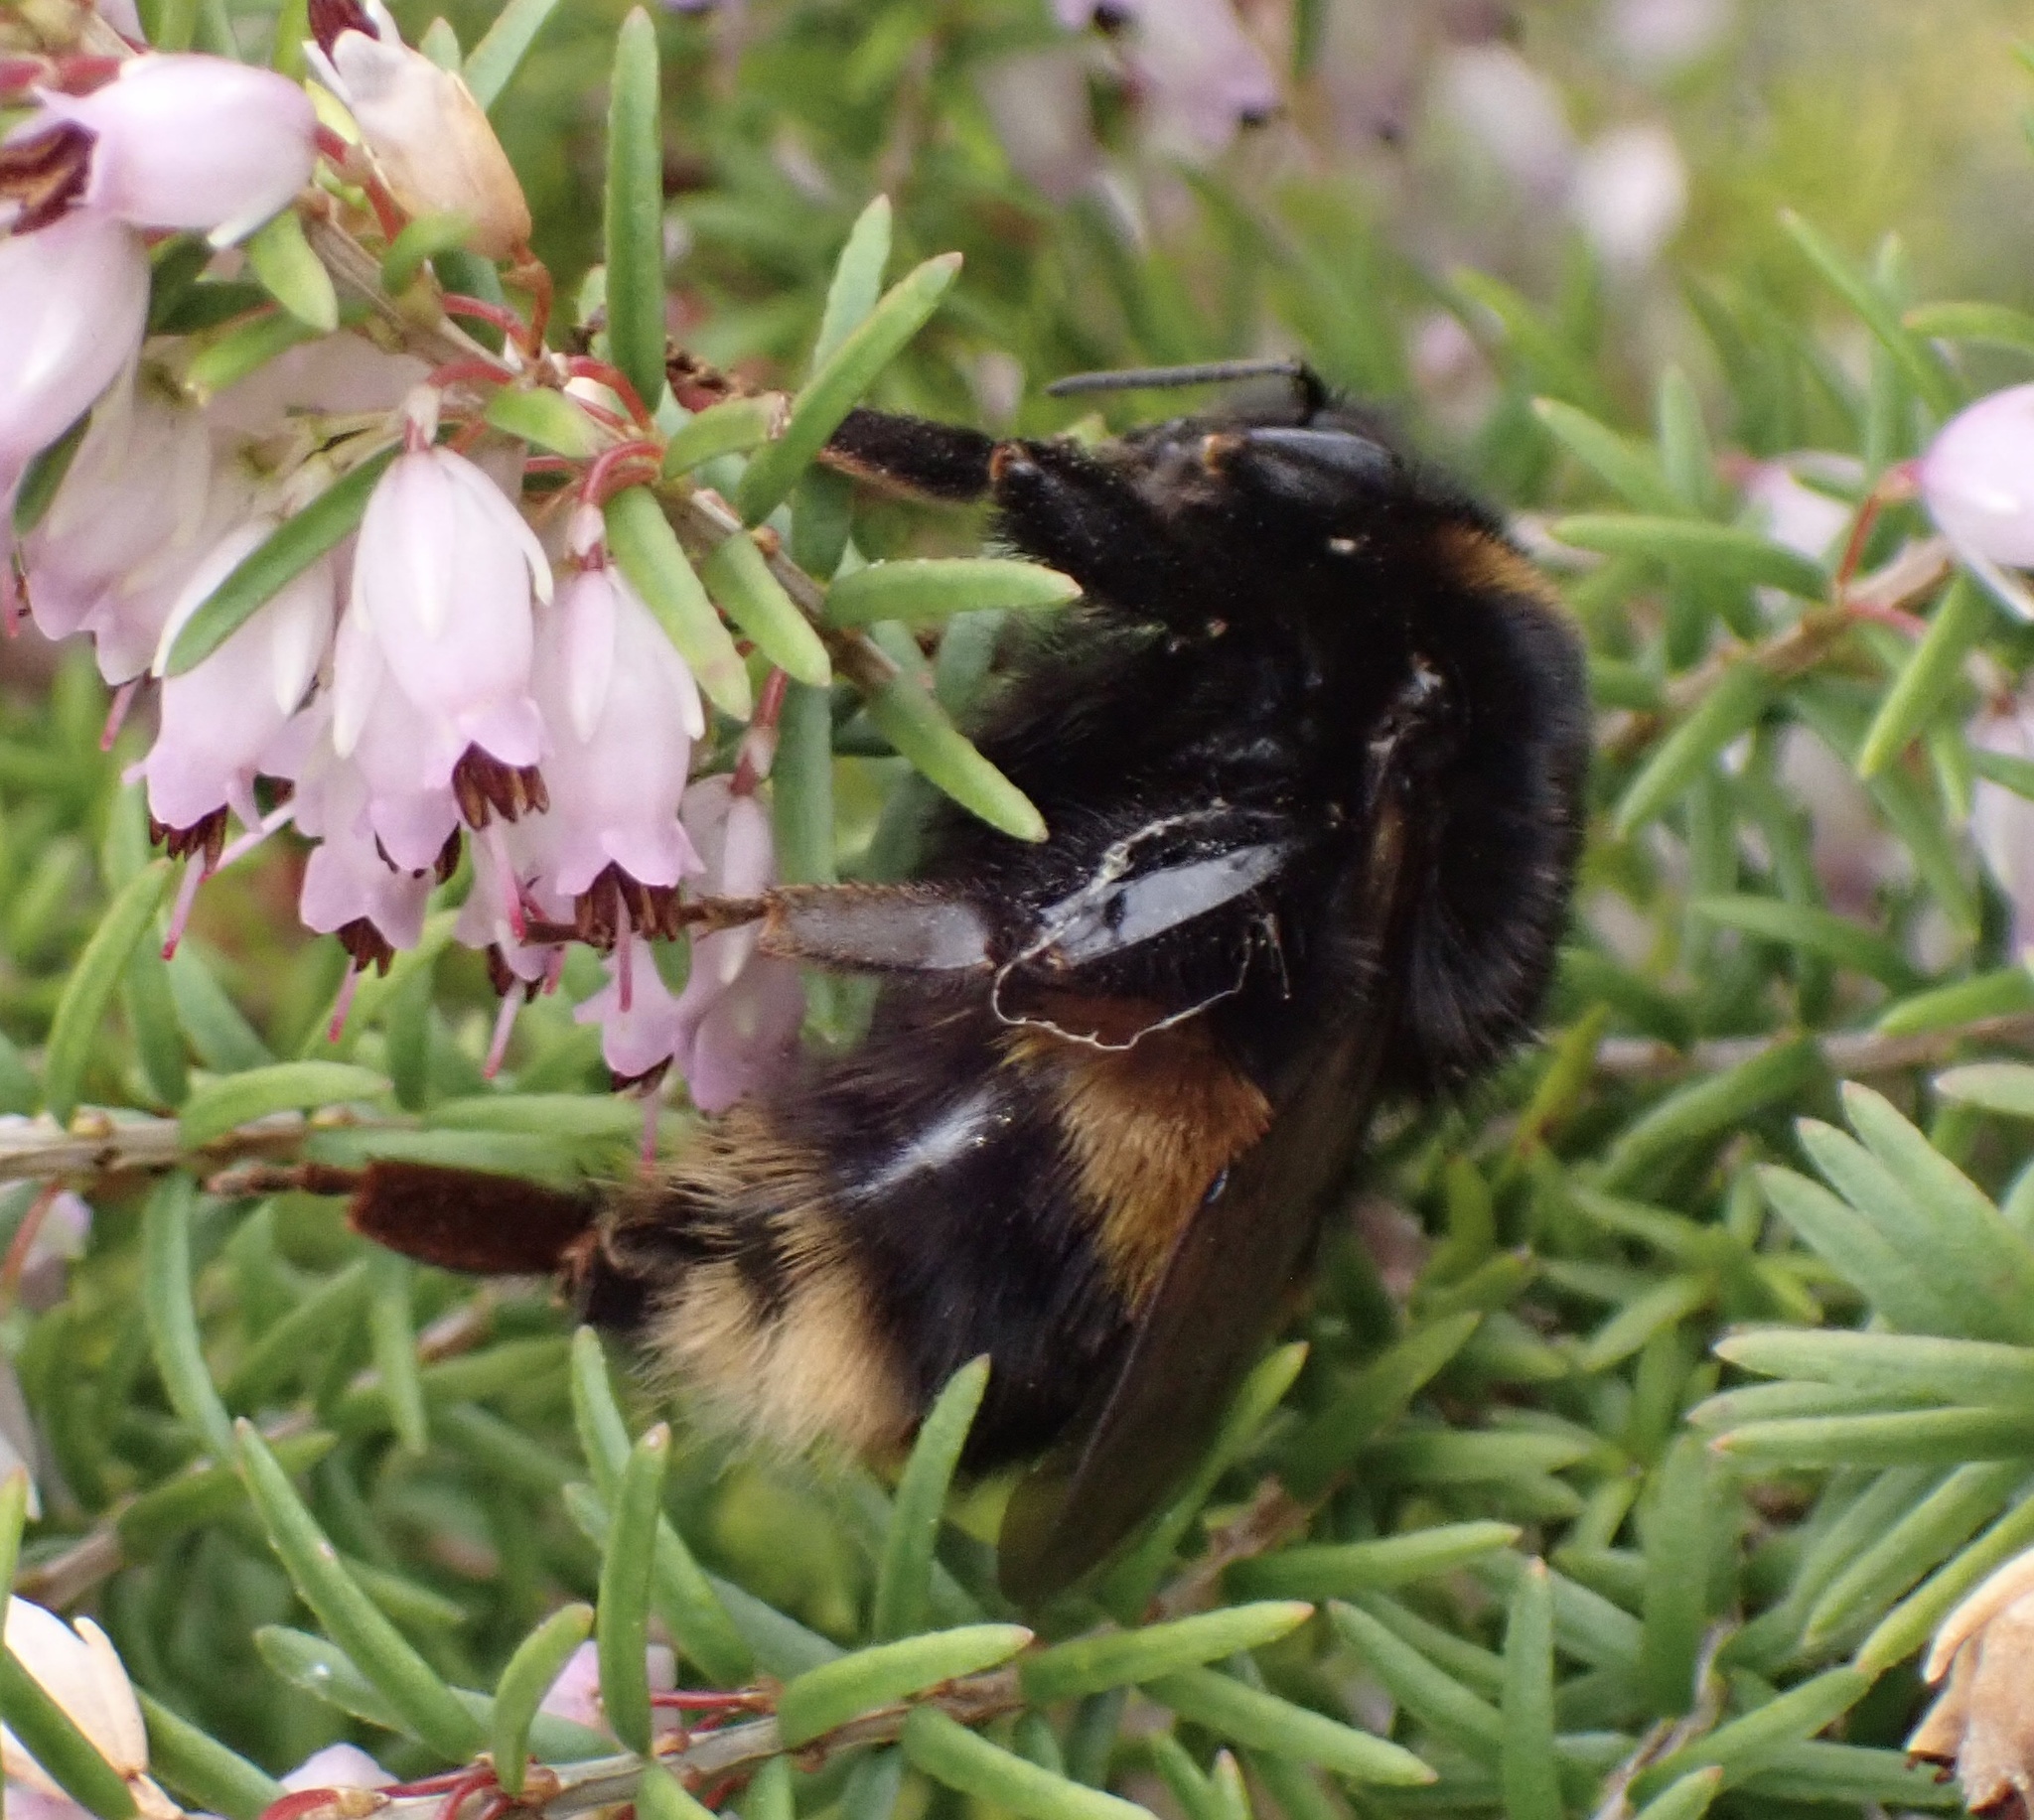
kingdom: Animalia
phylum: Arthropoda
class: Insecta
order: Hymenoptera
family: Apidae
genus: Bombus
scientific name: Bombus terrestris
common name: Buff-tailed bumblebee
